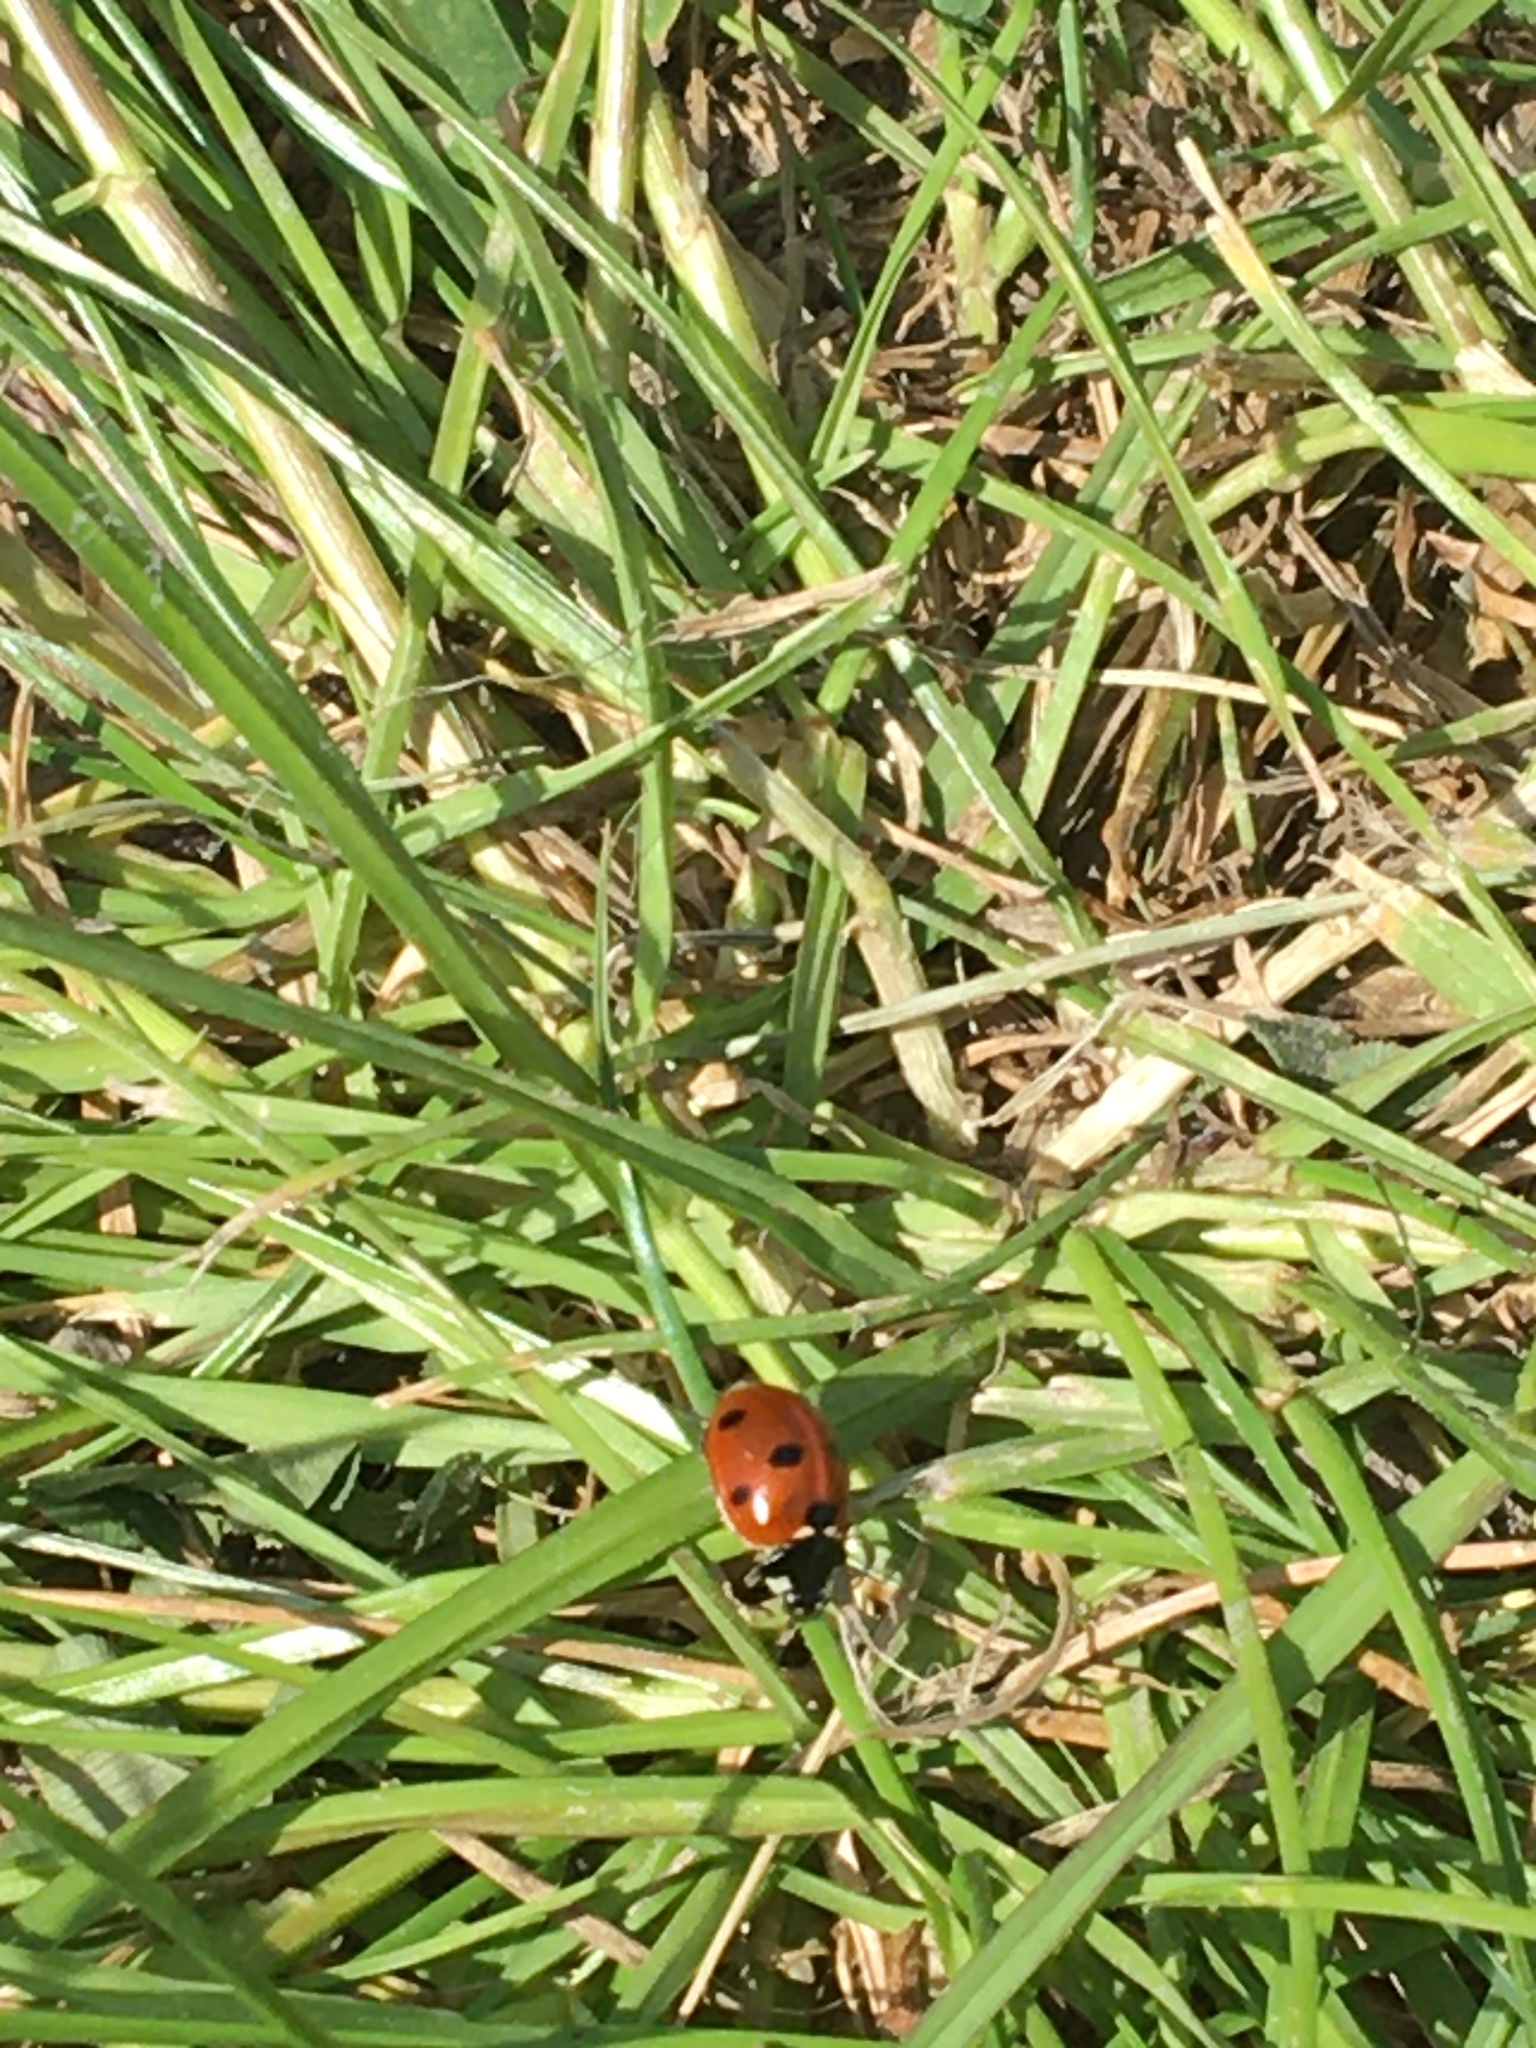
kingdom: Animalia
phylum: Arthropoda
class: Insecta
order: Coleoptera
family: Coccinellidae
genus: Coccinella
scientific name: Coccinella septempunctata
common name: Sevenspotted lady beetle
